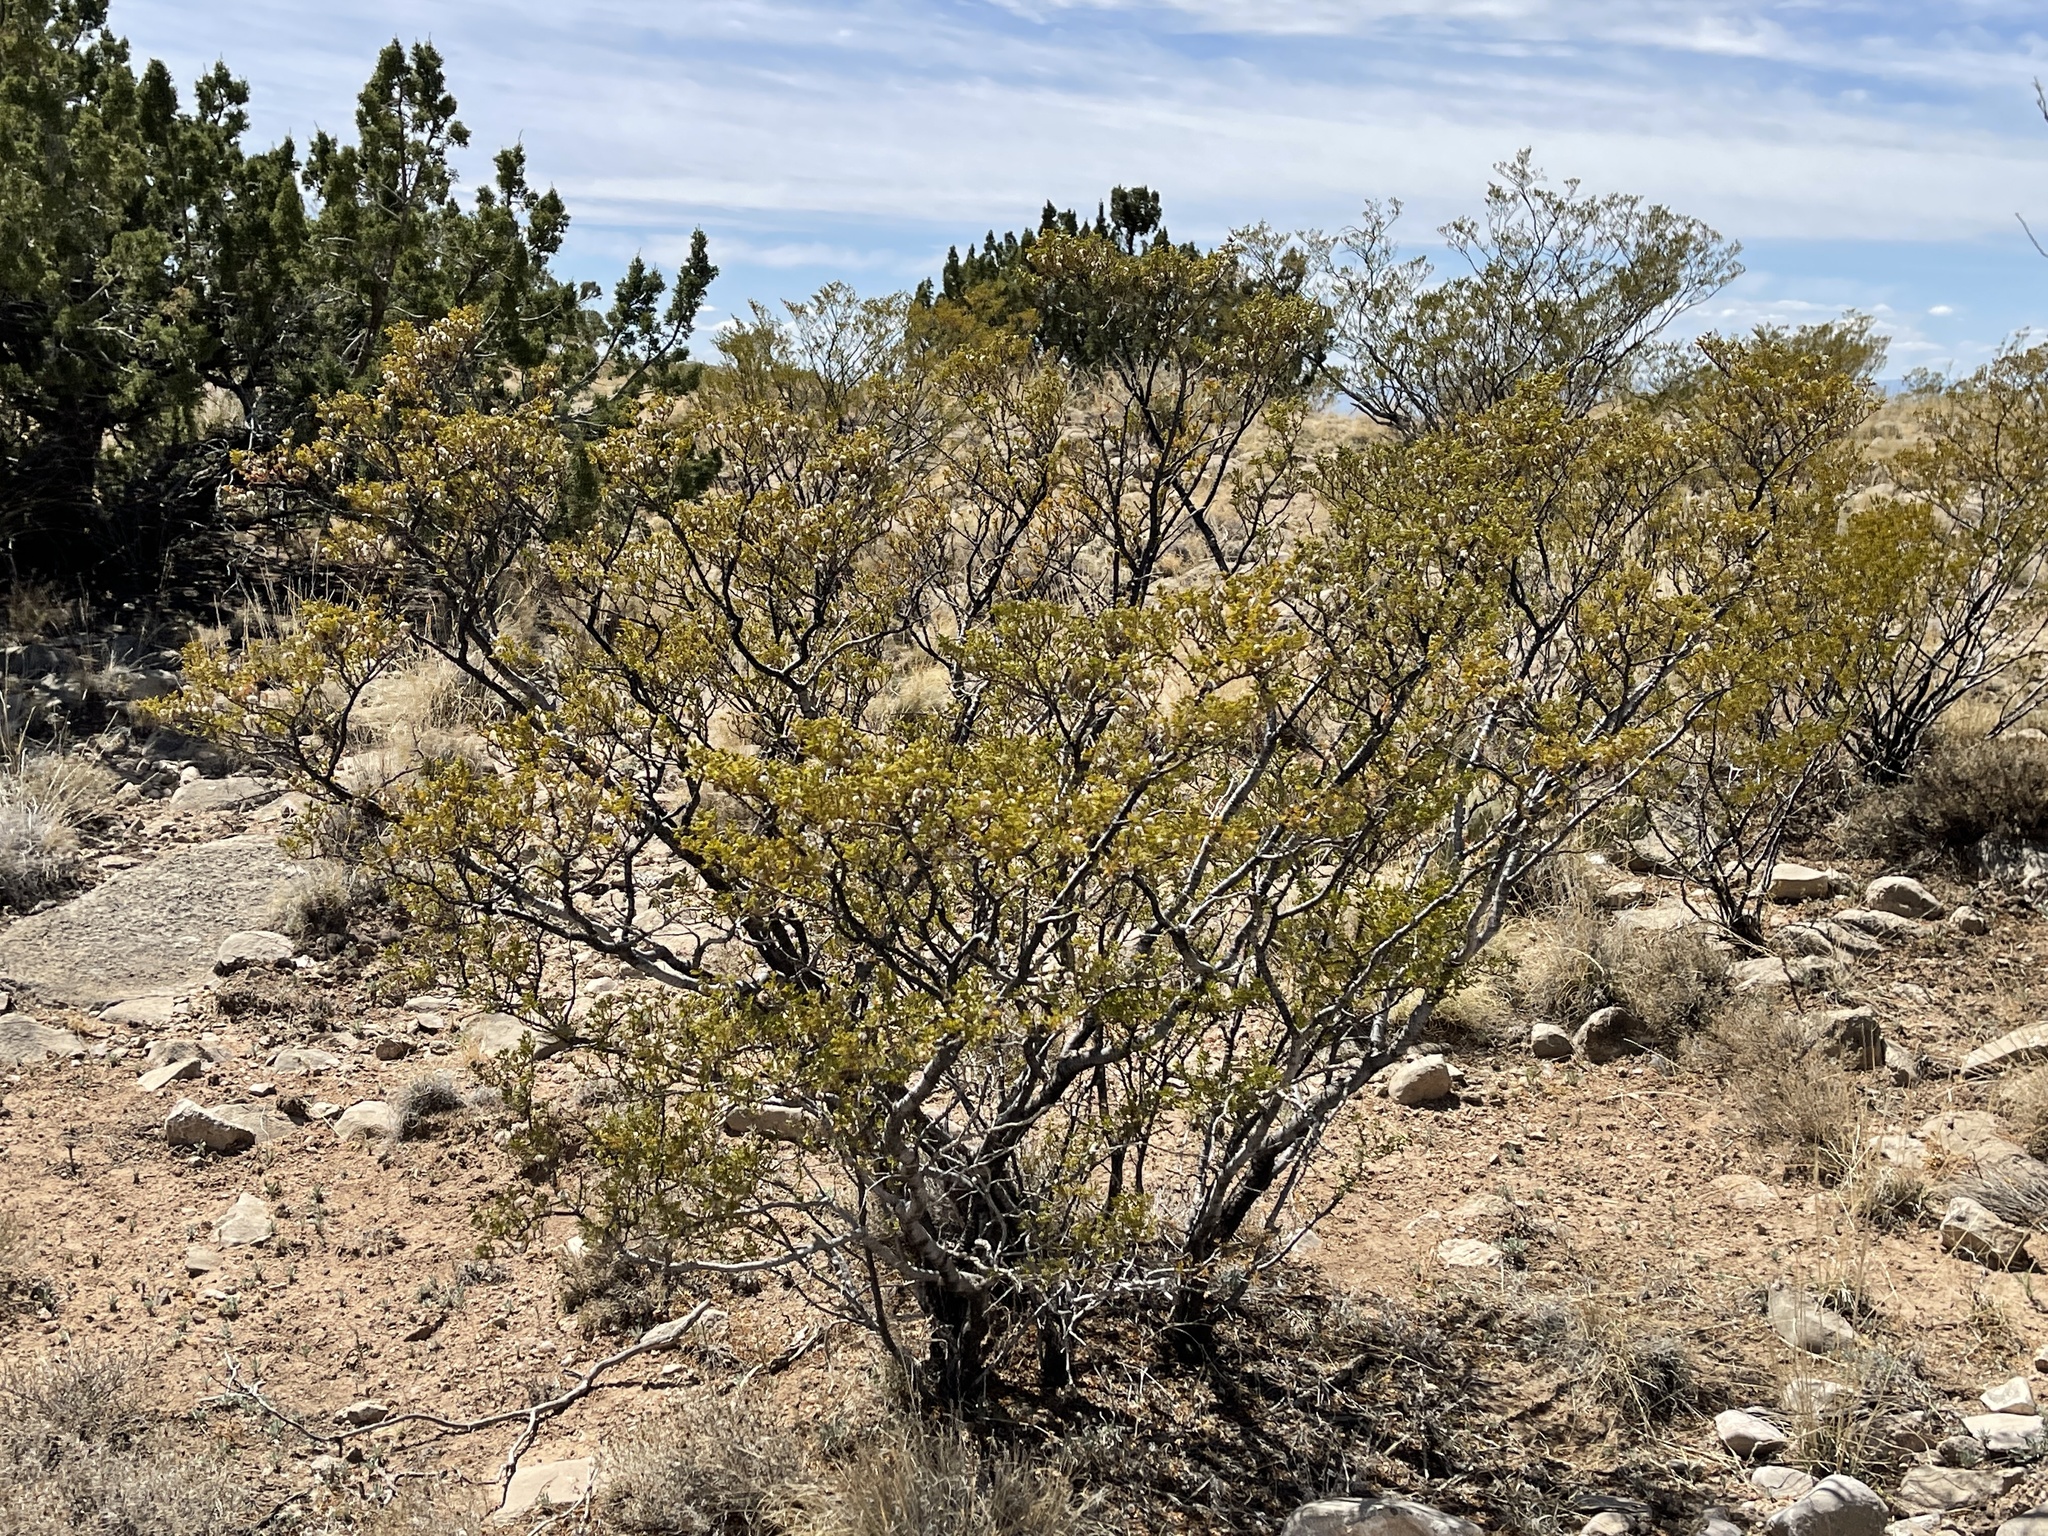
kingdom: Plantae
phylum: Tracheophyta
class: Magnoliopsida
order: Zygophyllales
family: Zygophyllaceae
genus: Larrea
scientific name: Larrea tridentata
